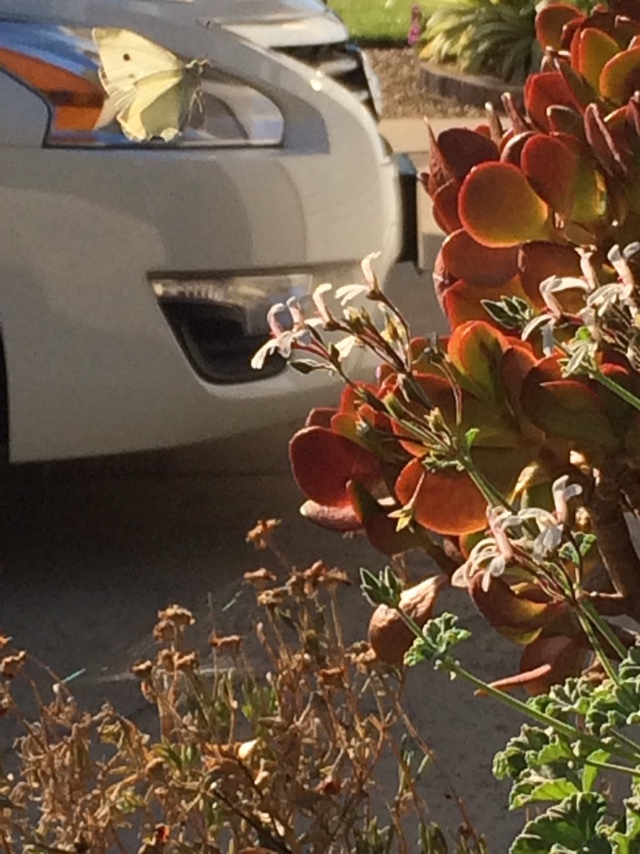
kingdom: Animalia
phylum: Arthropoda
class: Insecta
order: Lepidoptera
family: Pieridae
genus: Pieris
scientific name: Pieris rapae
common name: Small white
